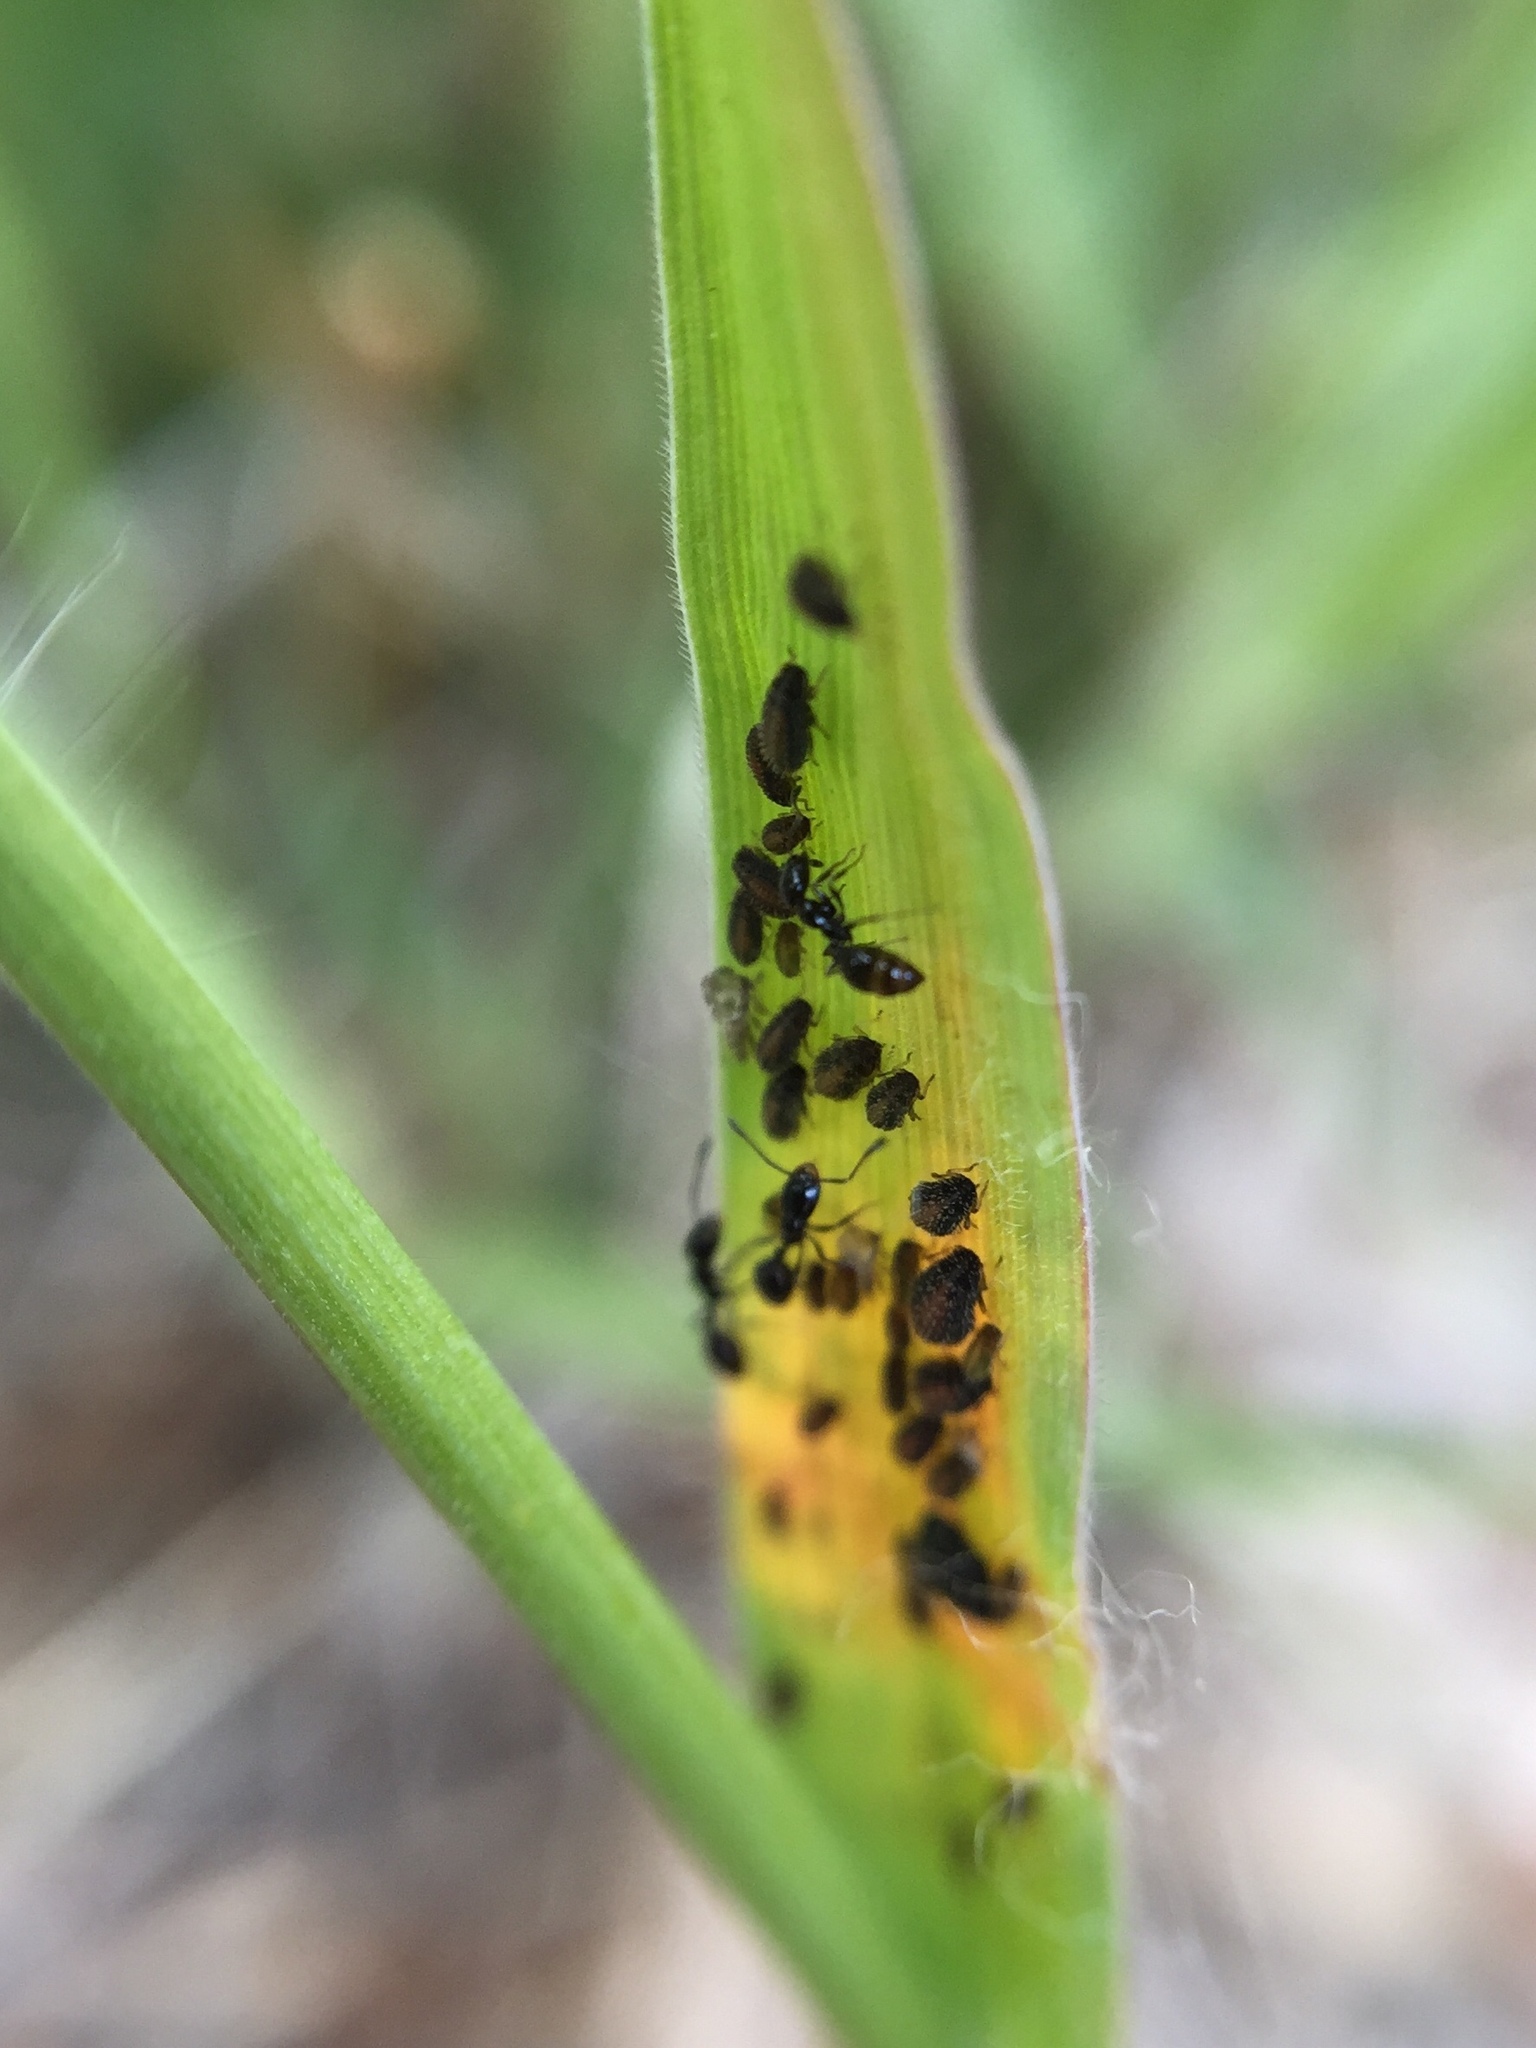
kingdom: Animalia
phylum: Arthropoda
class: Insecta
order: Hemiptera
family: Aphididae
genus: Sipha
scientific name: Sipha maydis
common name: Aphid
